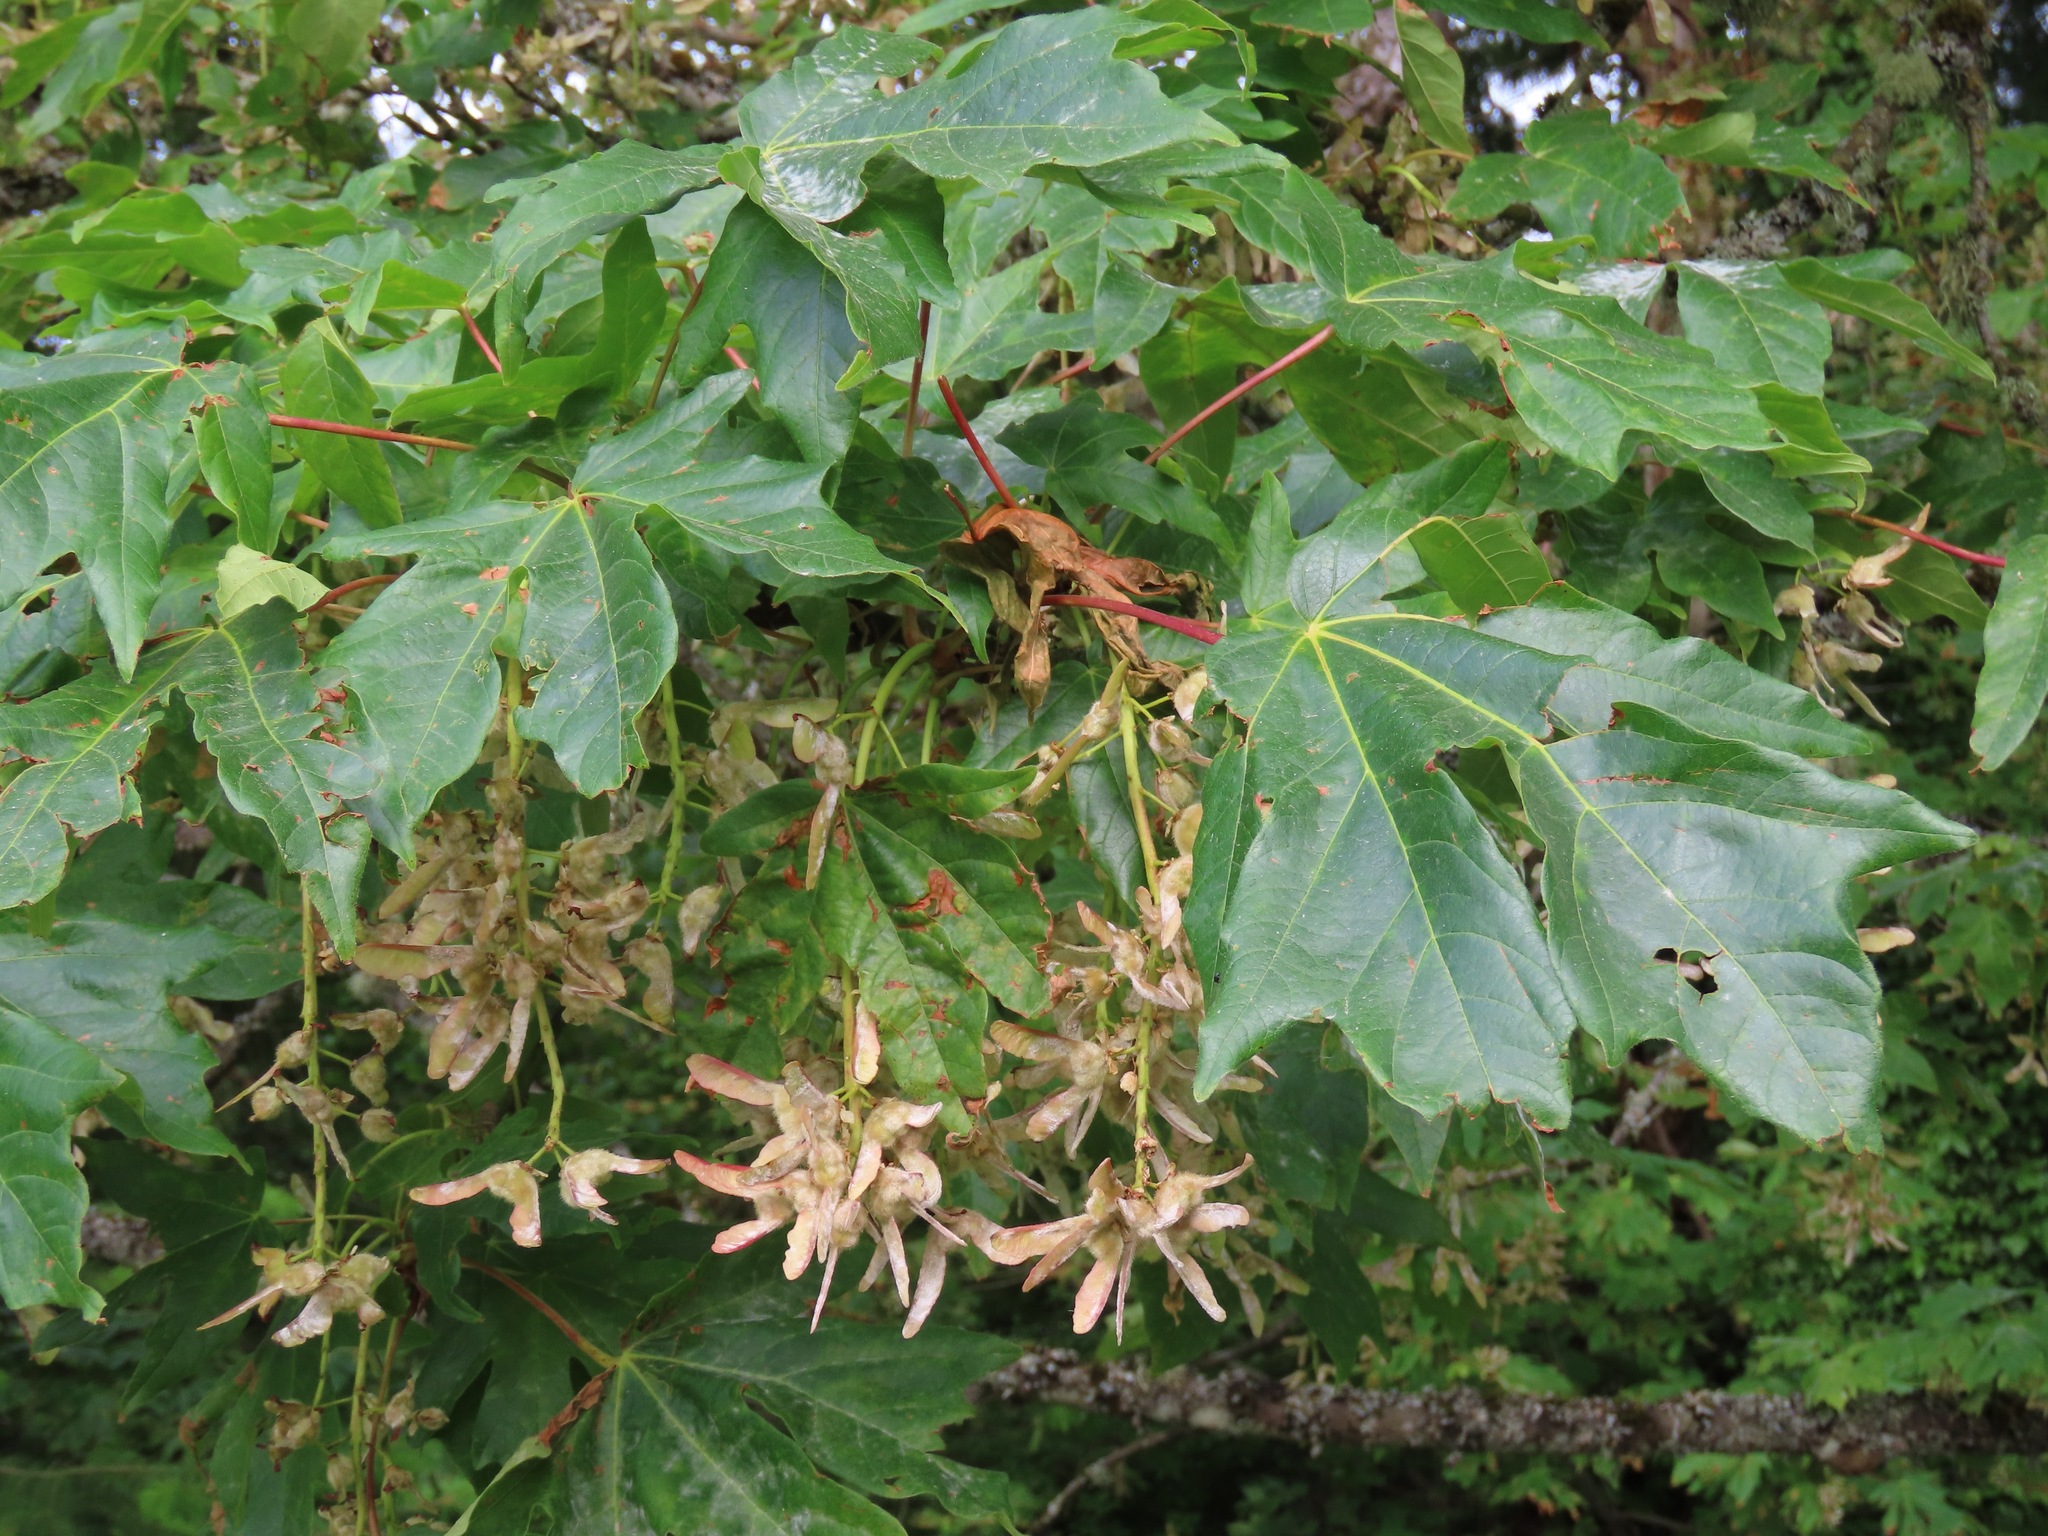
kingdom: Plantae
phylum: Tracheophyta
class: Magnoliopsida
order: Sapindales
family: Sapindaceae
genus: Acer
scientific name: Acer macrophyllum
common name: Oregon maple
